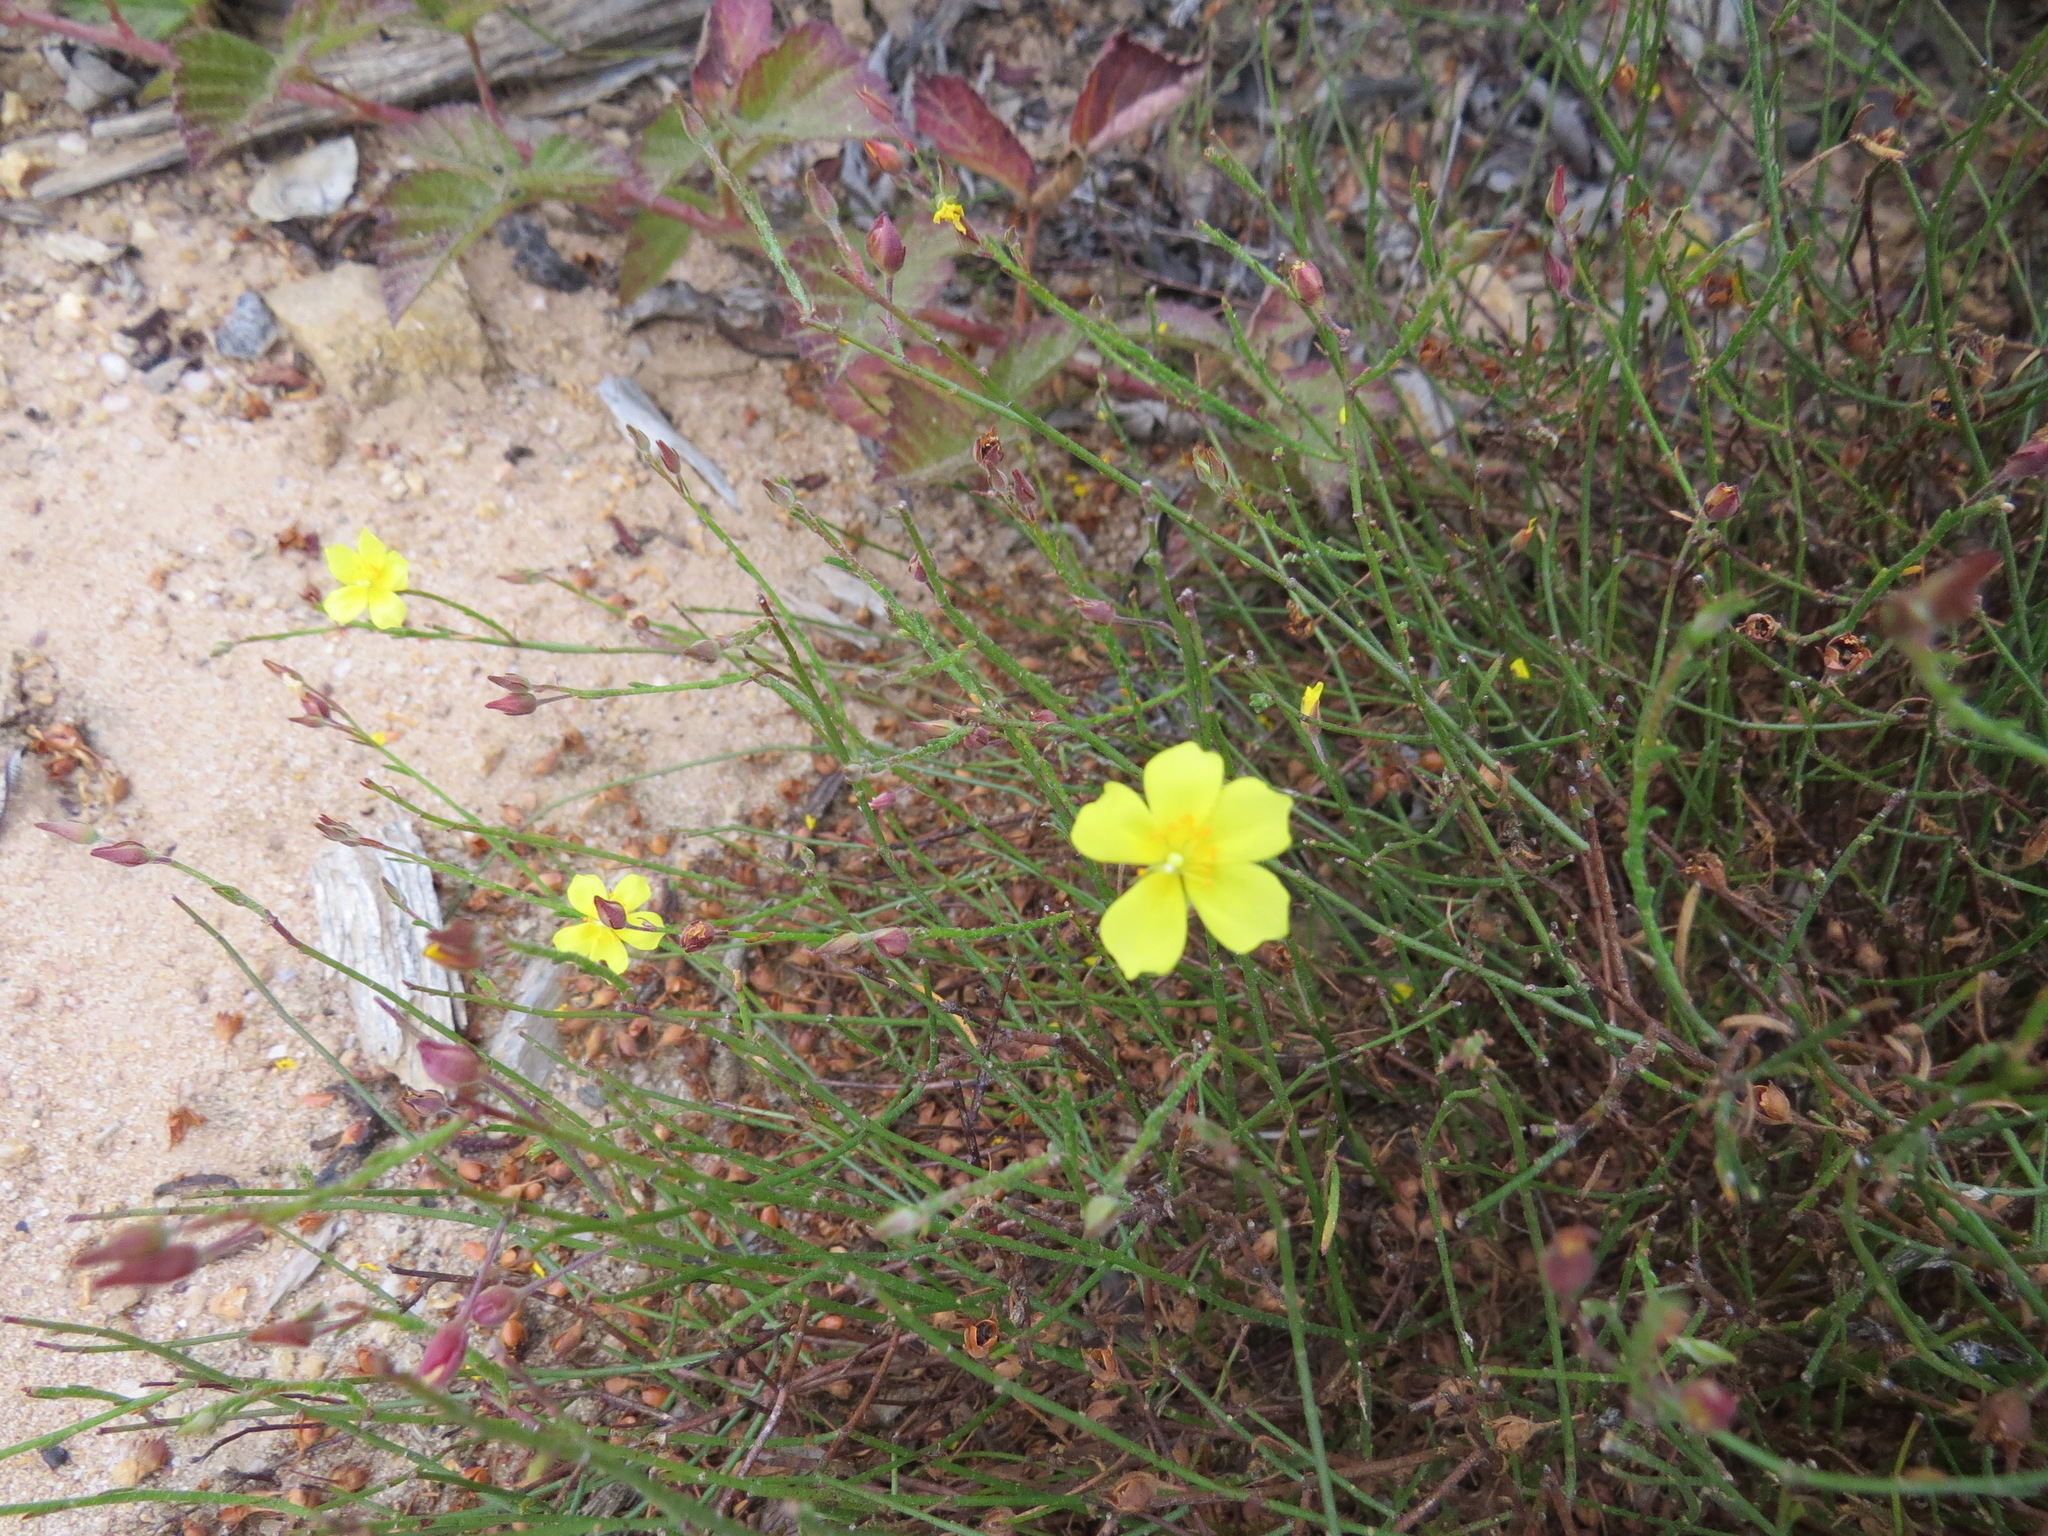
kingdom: Plantae
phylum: Tracheophyta
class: Magnoliopsida
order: Malvales
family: Cistaceae
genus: Crocanthemum
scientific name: Crocanthemum scoparium
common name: Broom-rose
